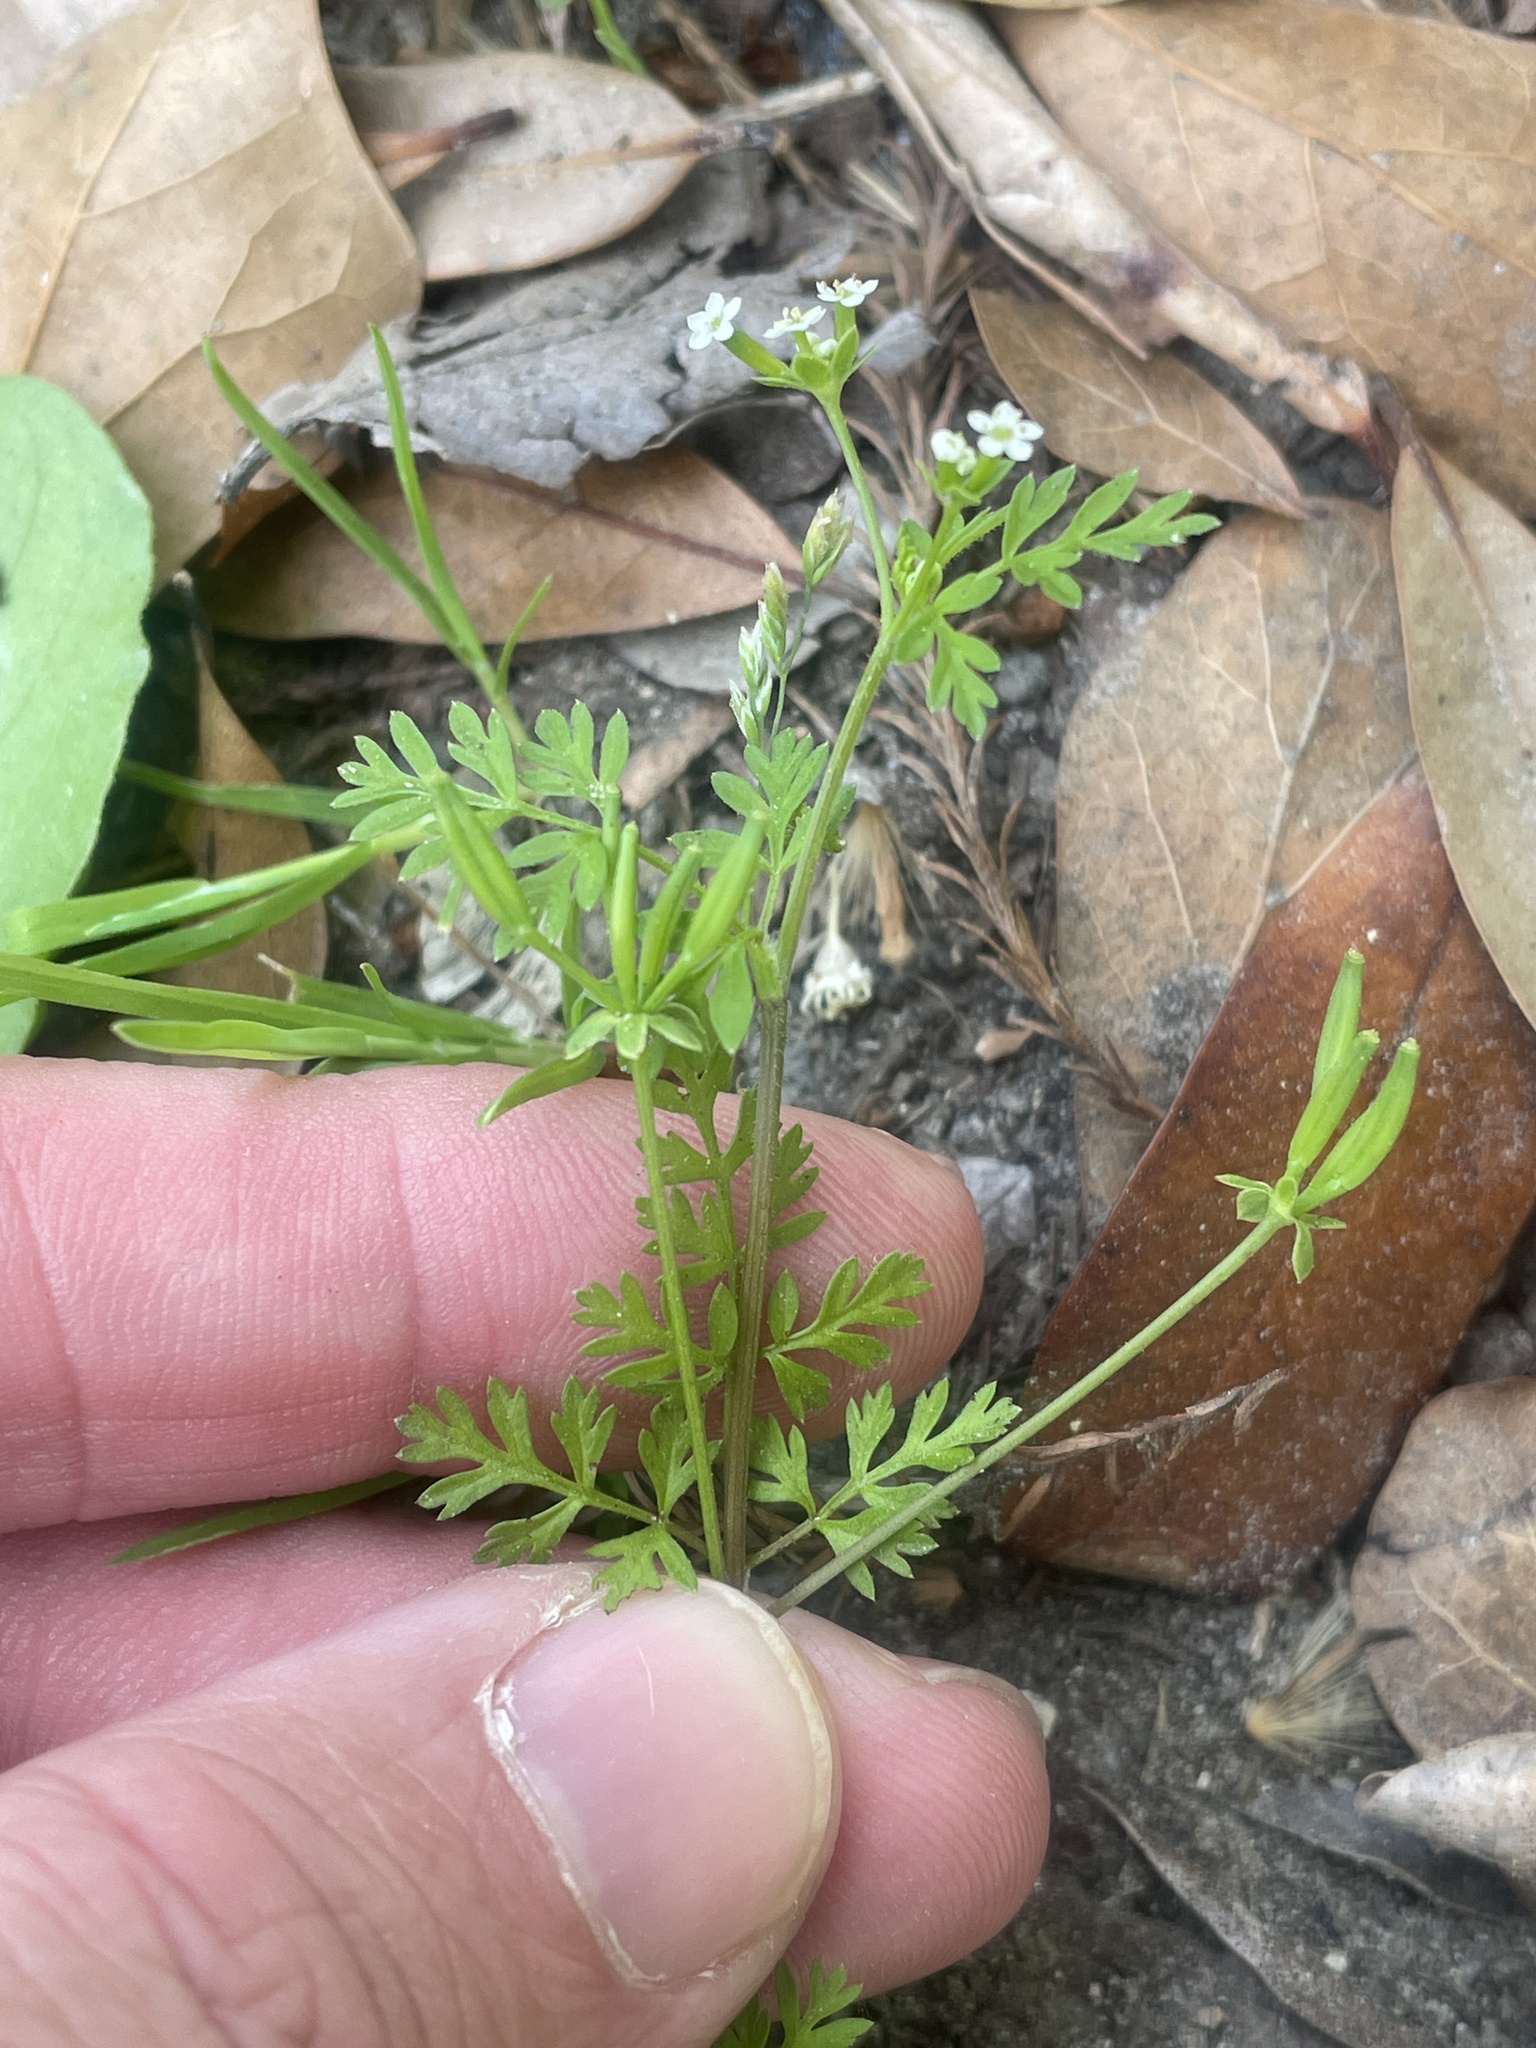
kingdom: Plantae
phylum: Tracheophyta
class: Magnoliopsida
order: Apiales
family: Apiaceae
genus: Chaerophyllum
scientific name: Chaerophyllum tainturieri
